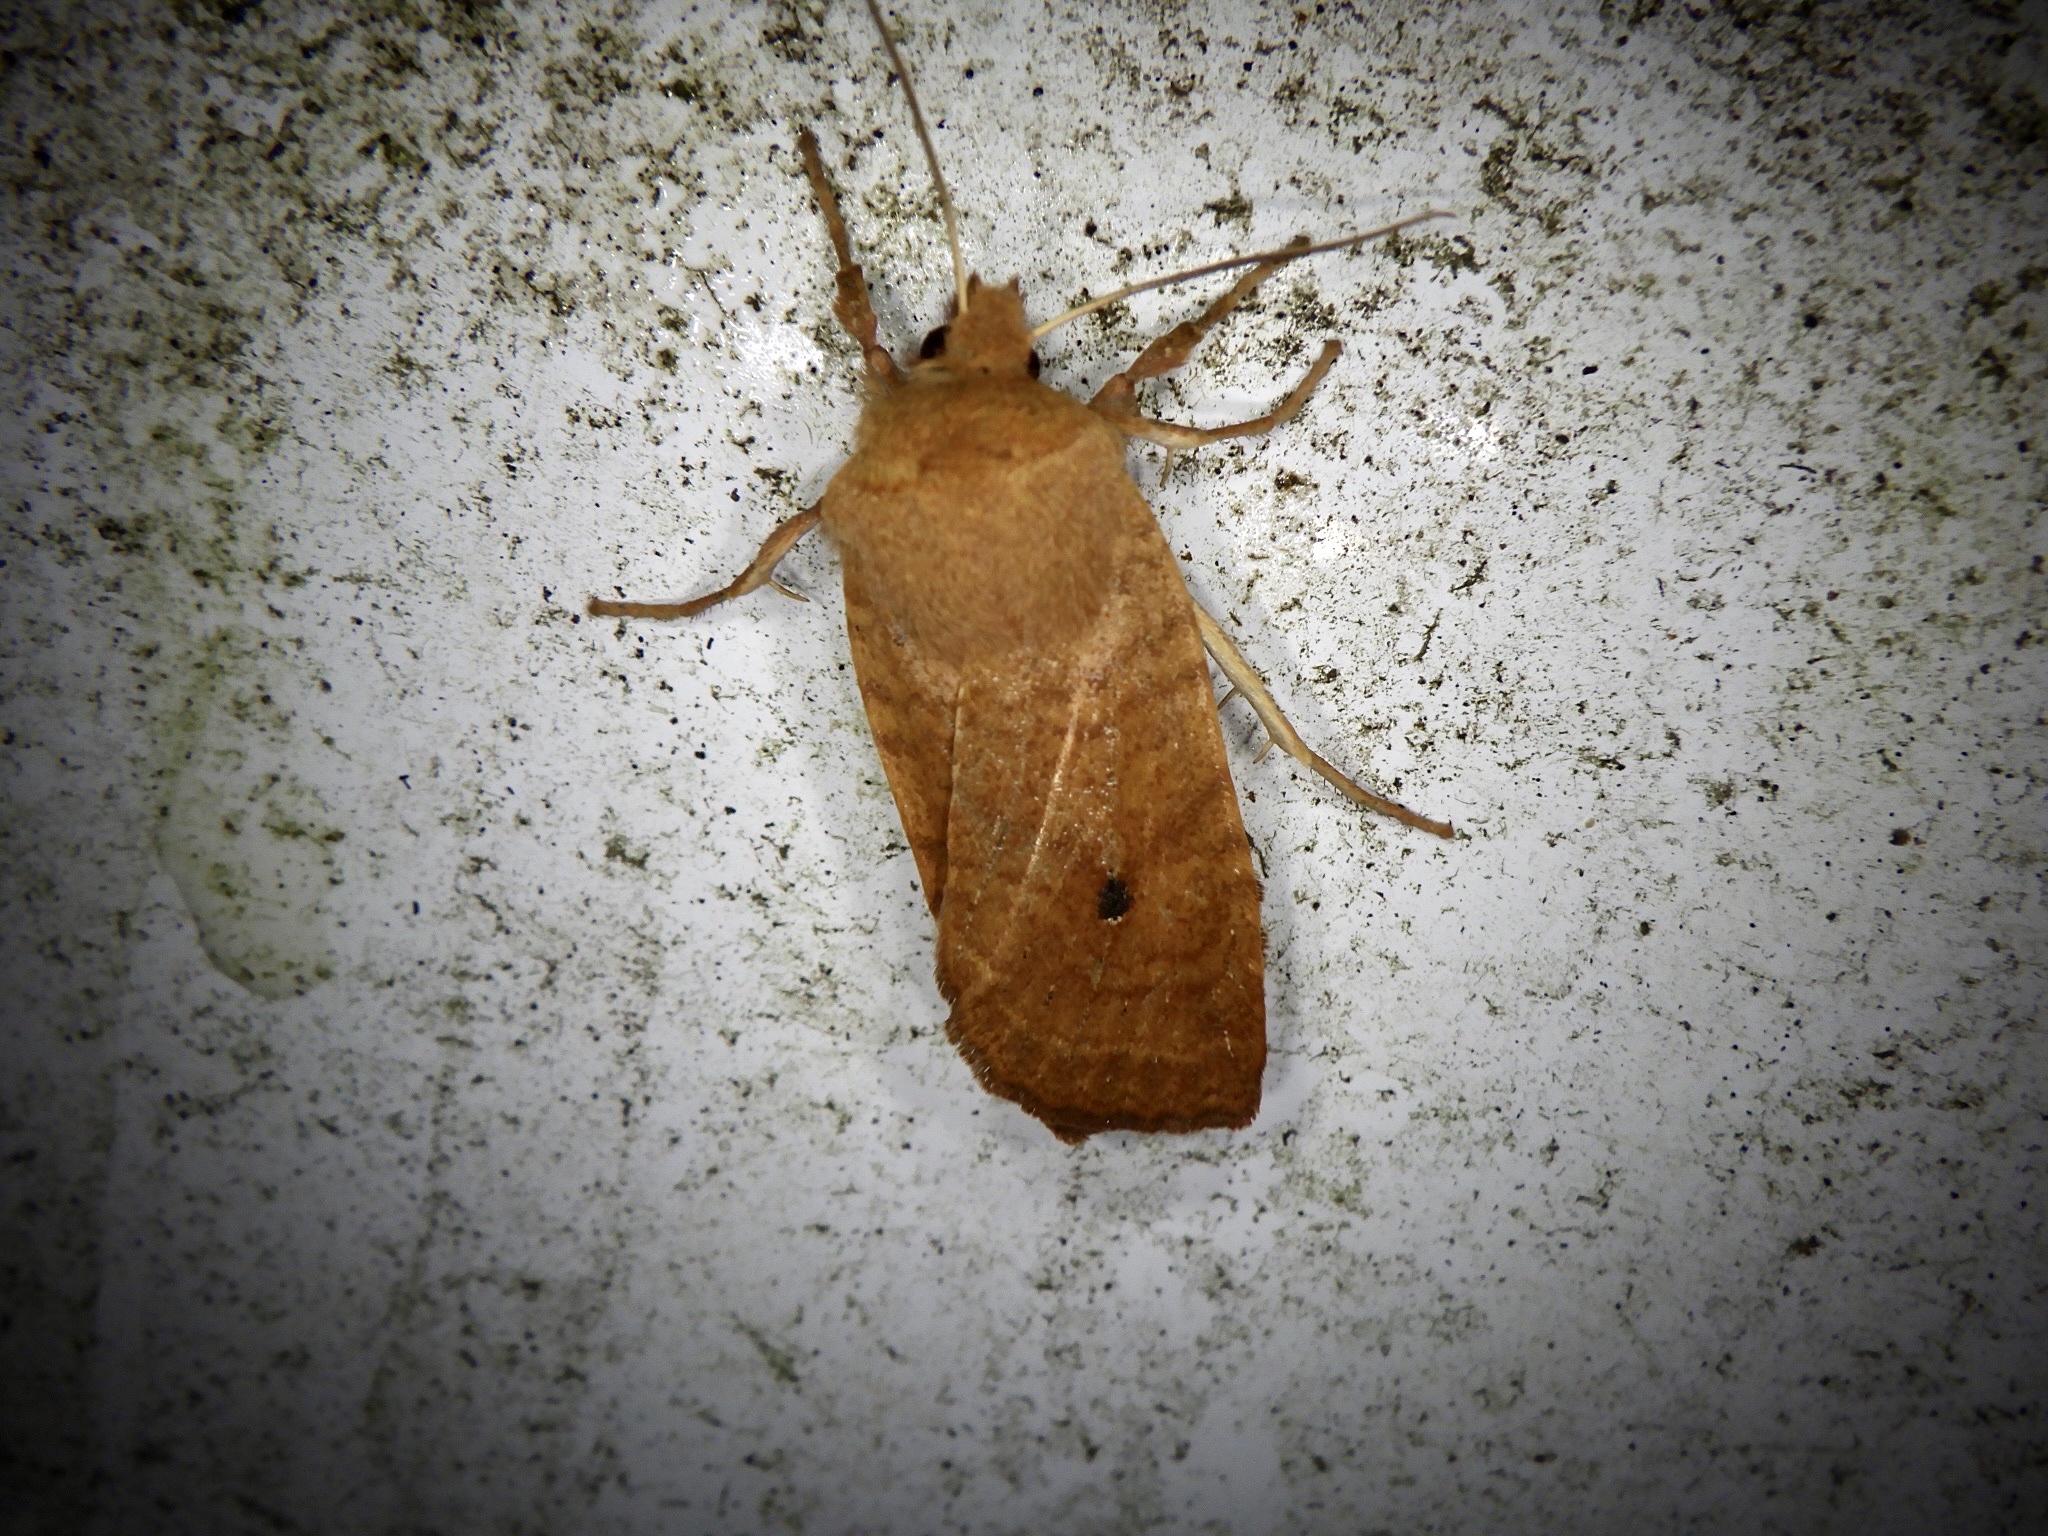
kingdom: Animalia
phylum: Arthropoda
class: Insecta
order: Lepidoptera
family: Noctuidae
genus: Conistra
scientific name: Conistra albipuncta
